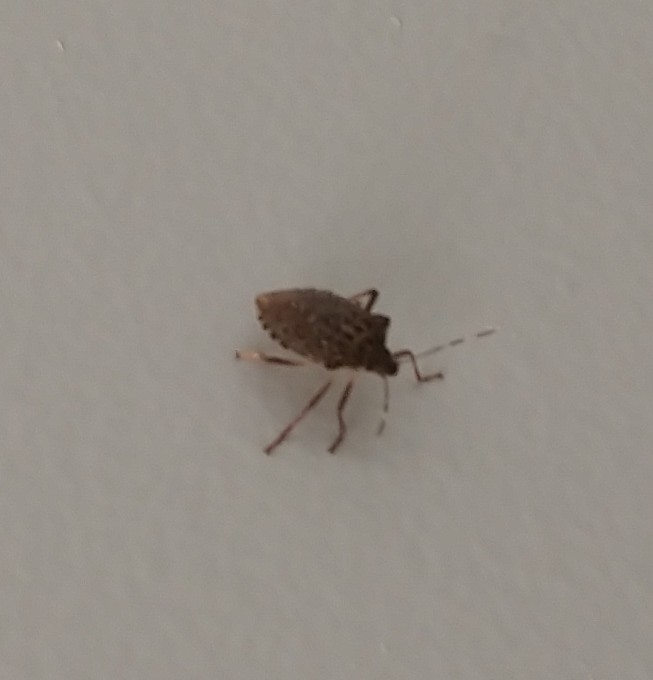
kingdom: Animalia
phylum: Arthropoda
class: Insecta
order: Hemiptera
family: Pentatomidae
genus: Halyomorpha
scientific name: Halyomorpha halys
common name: Brown marmorated stink bug
